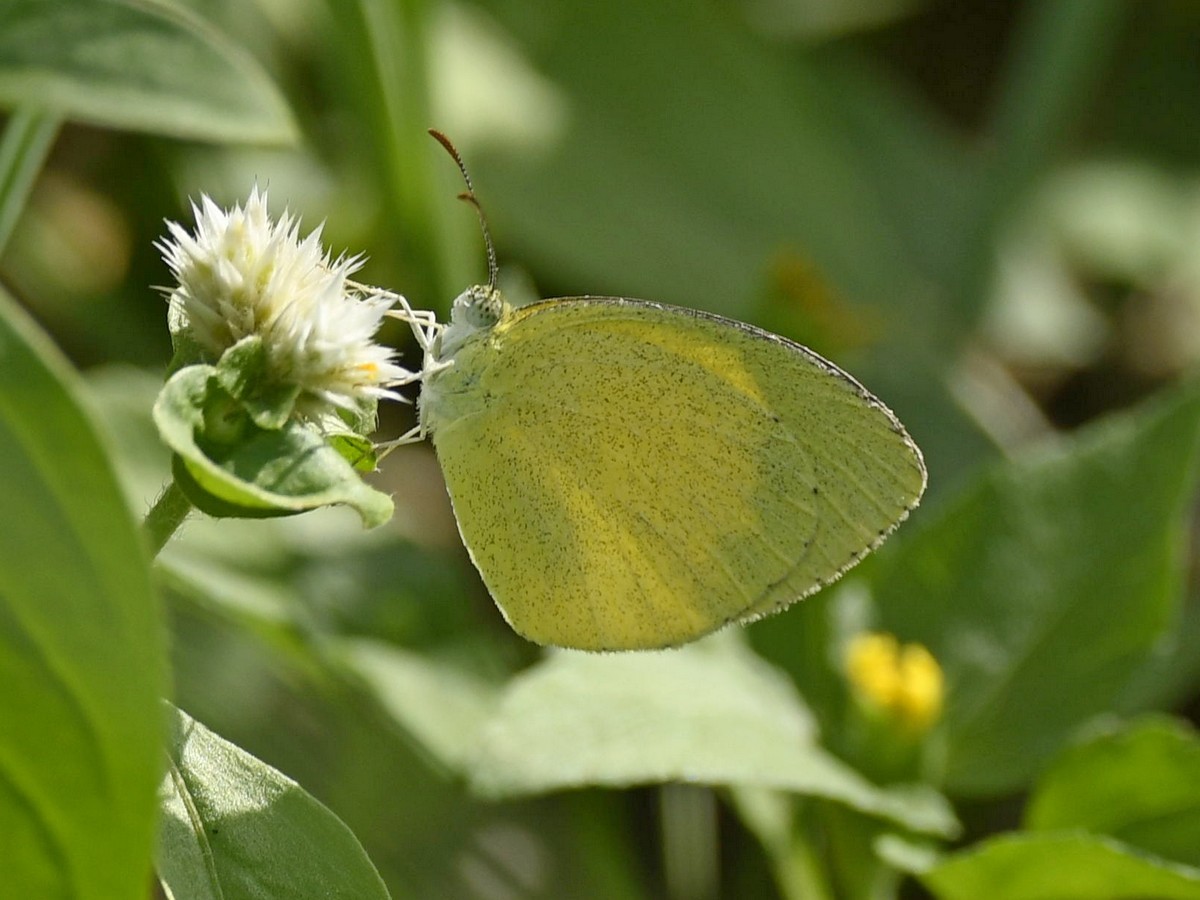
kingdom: Animalia
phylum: Arthropoda
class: Insecta
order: Lepidoptera
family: Pieridae
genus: Eurema
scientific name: Eurema brigitta
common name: Small grass yellow
